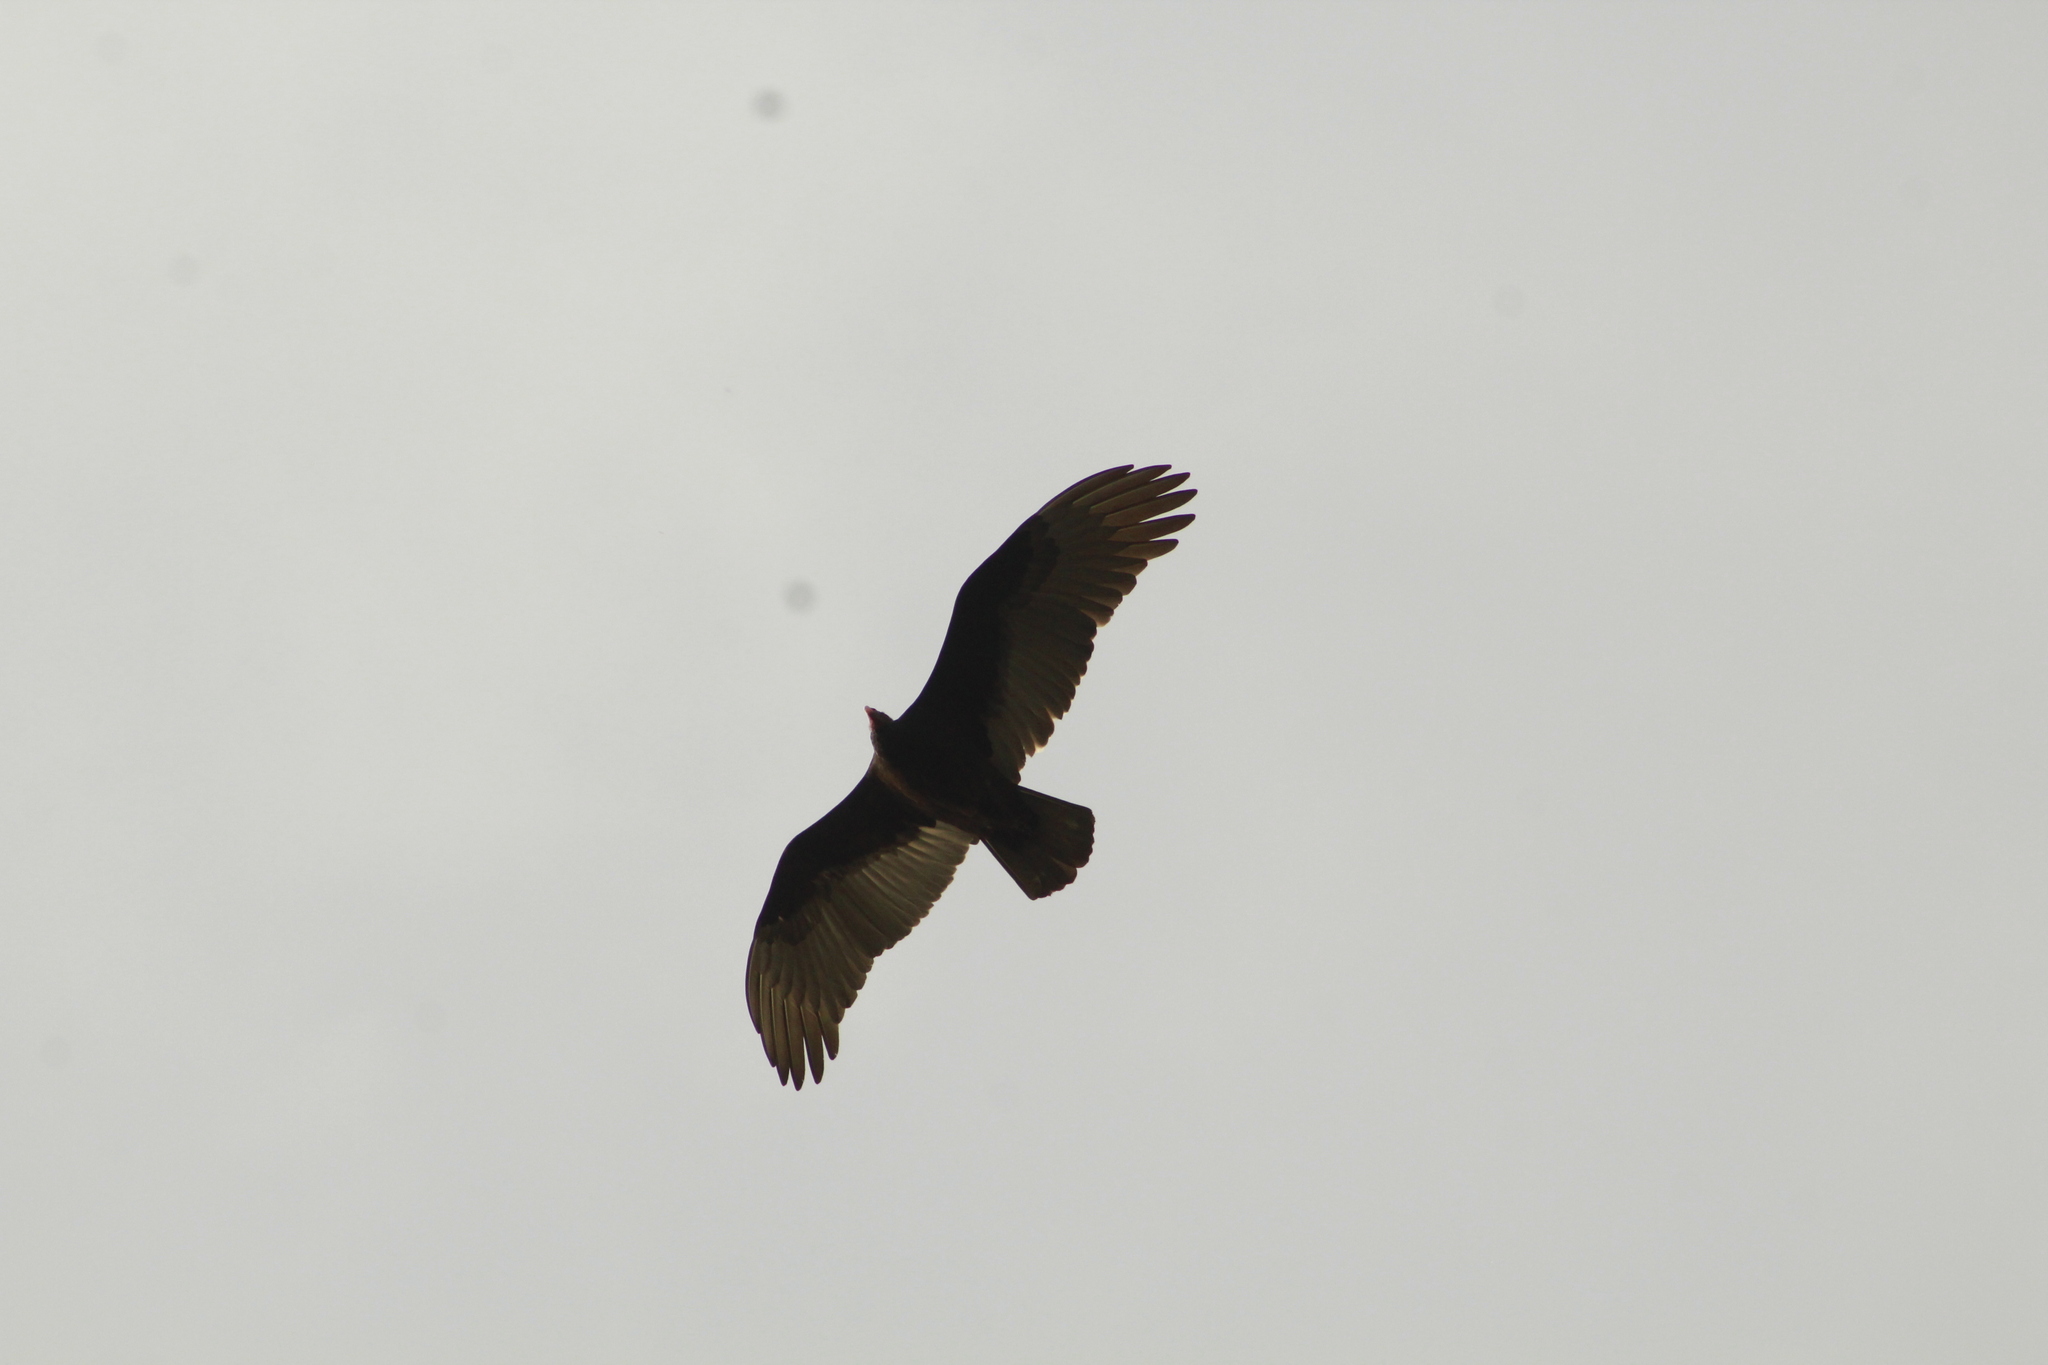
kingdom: Animalia
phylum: Chordata
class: Aves
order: Accipitriformes
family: Cathartidae
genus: Cathartes
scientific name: Cathartes aura
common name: Turkey vulture
